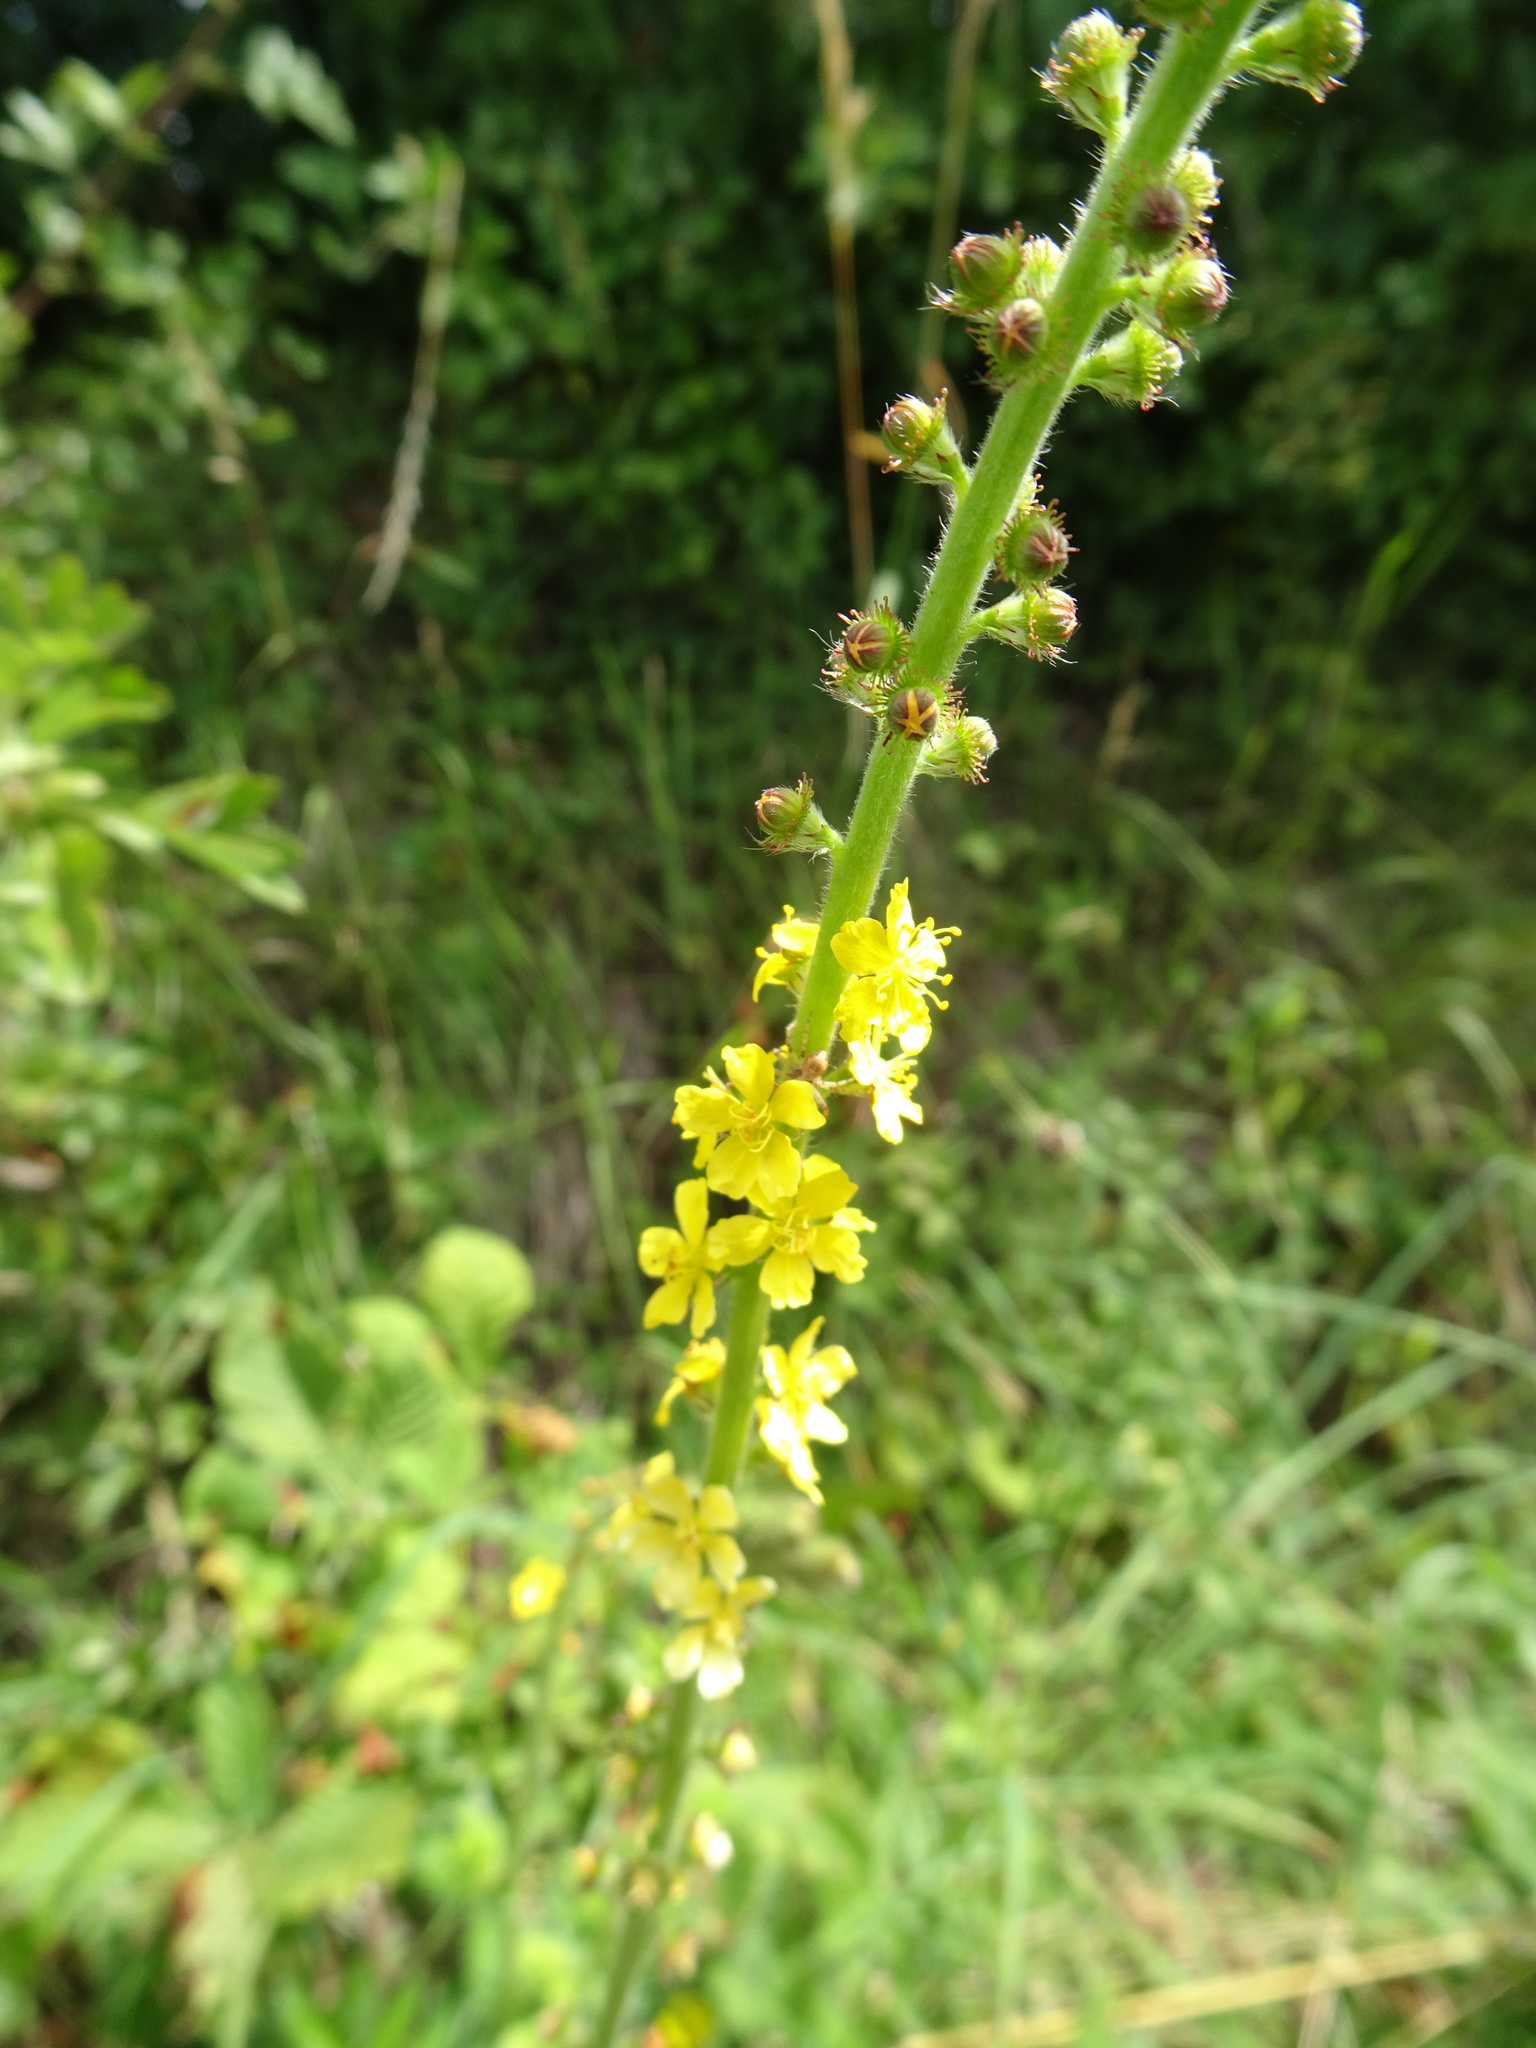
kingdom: Plantae
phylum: Tracheophyta
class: Magnoliopsida
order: Rosales
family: Rosaceae
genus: Agrimonia
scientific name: Agrimonia eupatoria
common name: Agrimony
